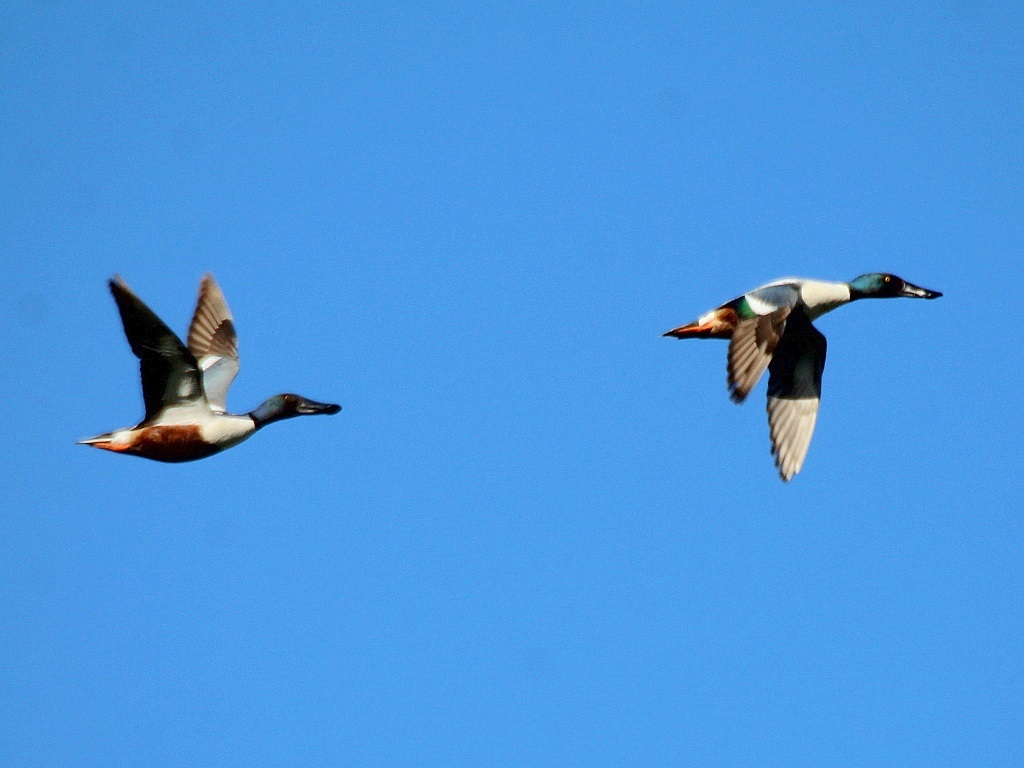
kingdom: Animalia
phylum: Chordata
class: Aves
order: Anseriformes
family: Anatidae
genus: Spatula
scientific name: Spatula clypeata
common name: Northern shoveler
